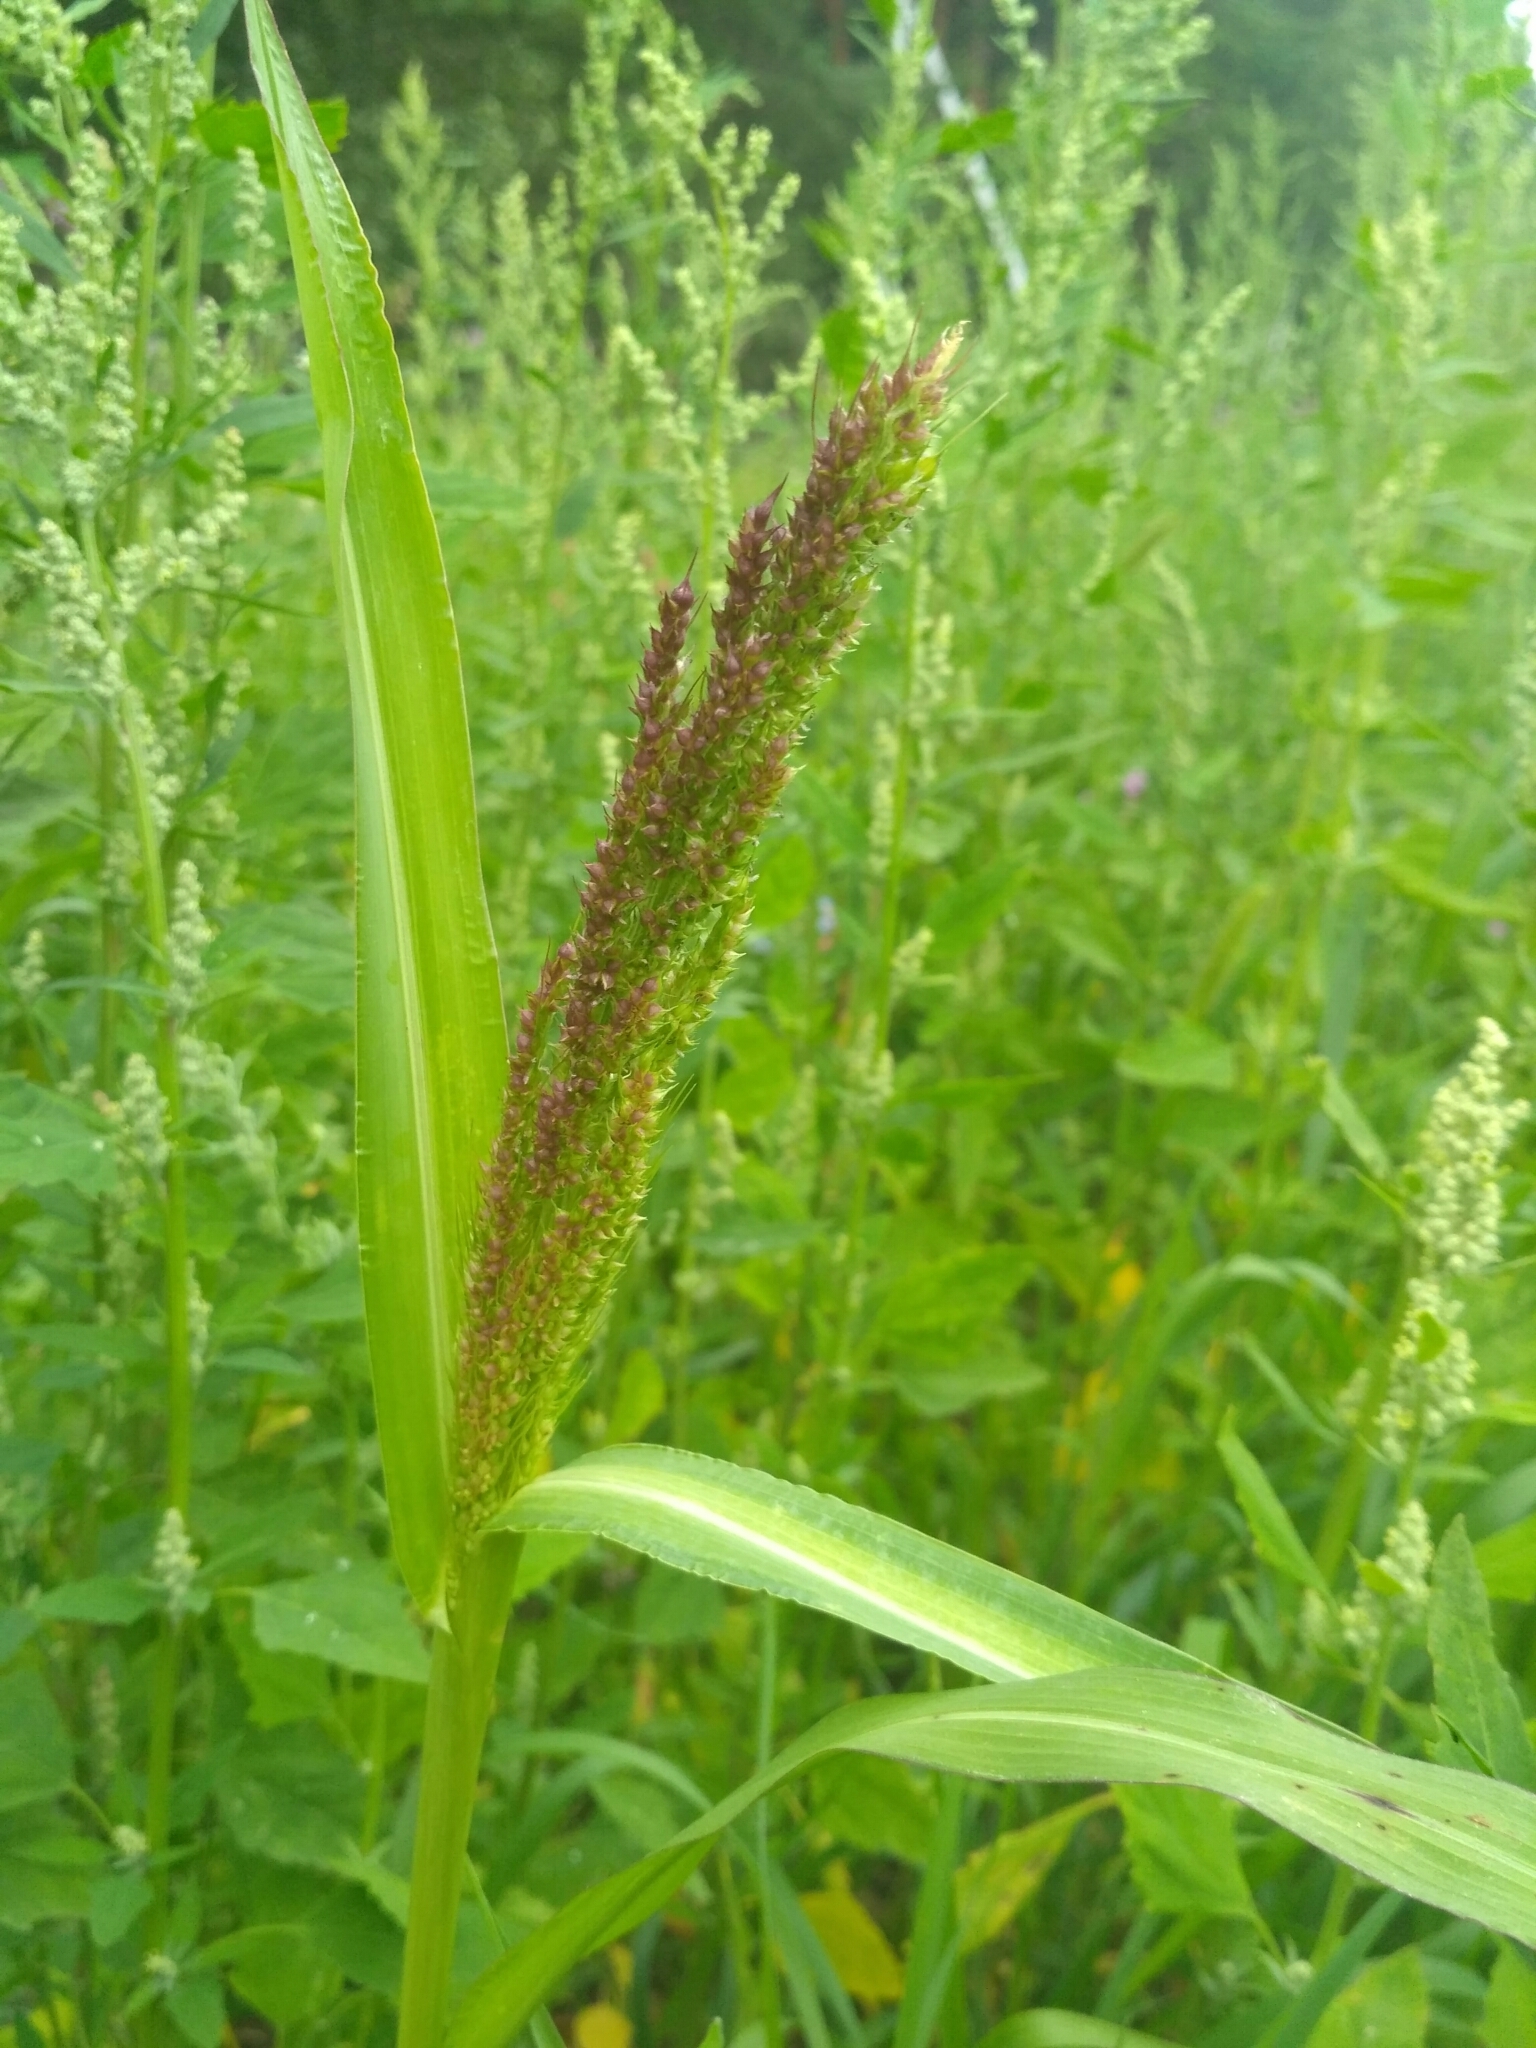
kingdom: Plantae
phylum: Tracheophyta
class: Liliopsida
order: Poales
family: Poaceae
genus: Echinochloa
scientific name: Echinochloa crus-galli
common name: Cockspur
